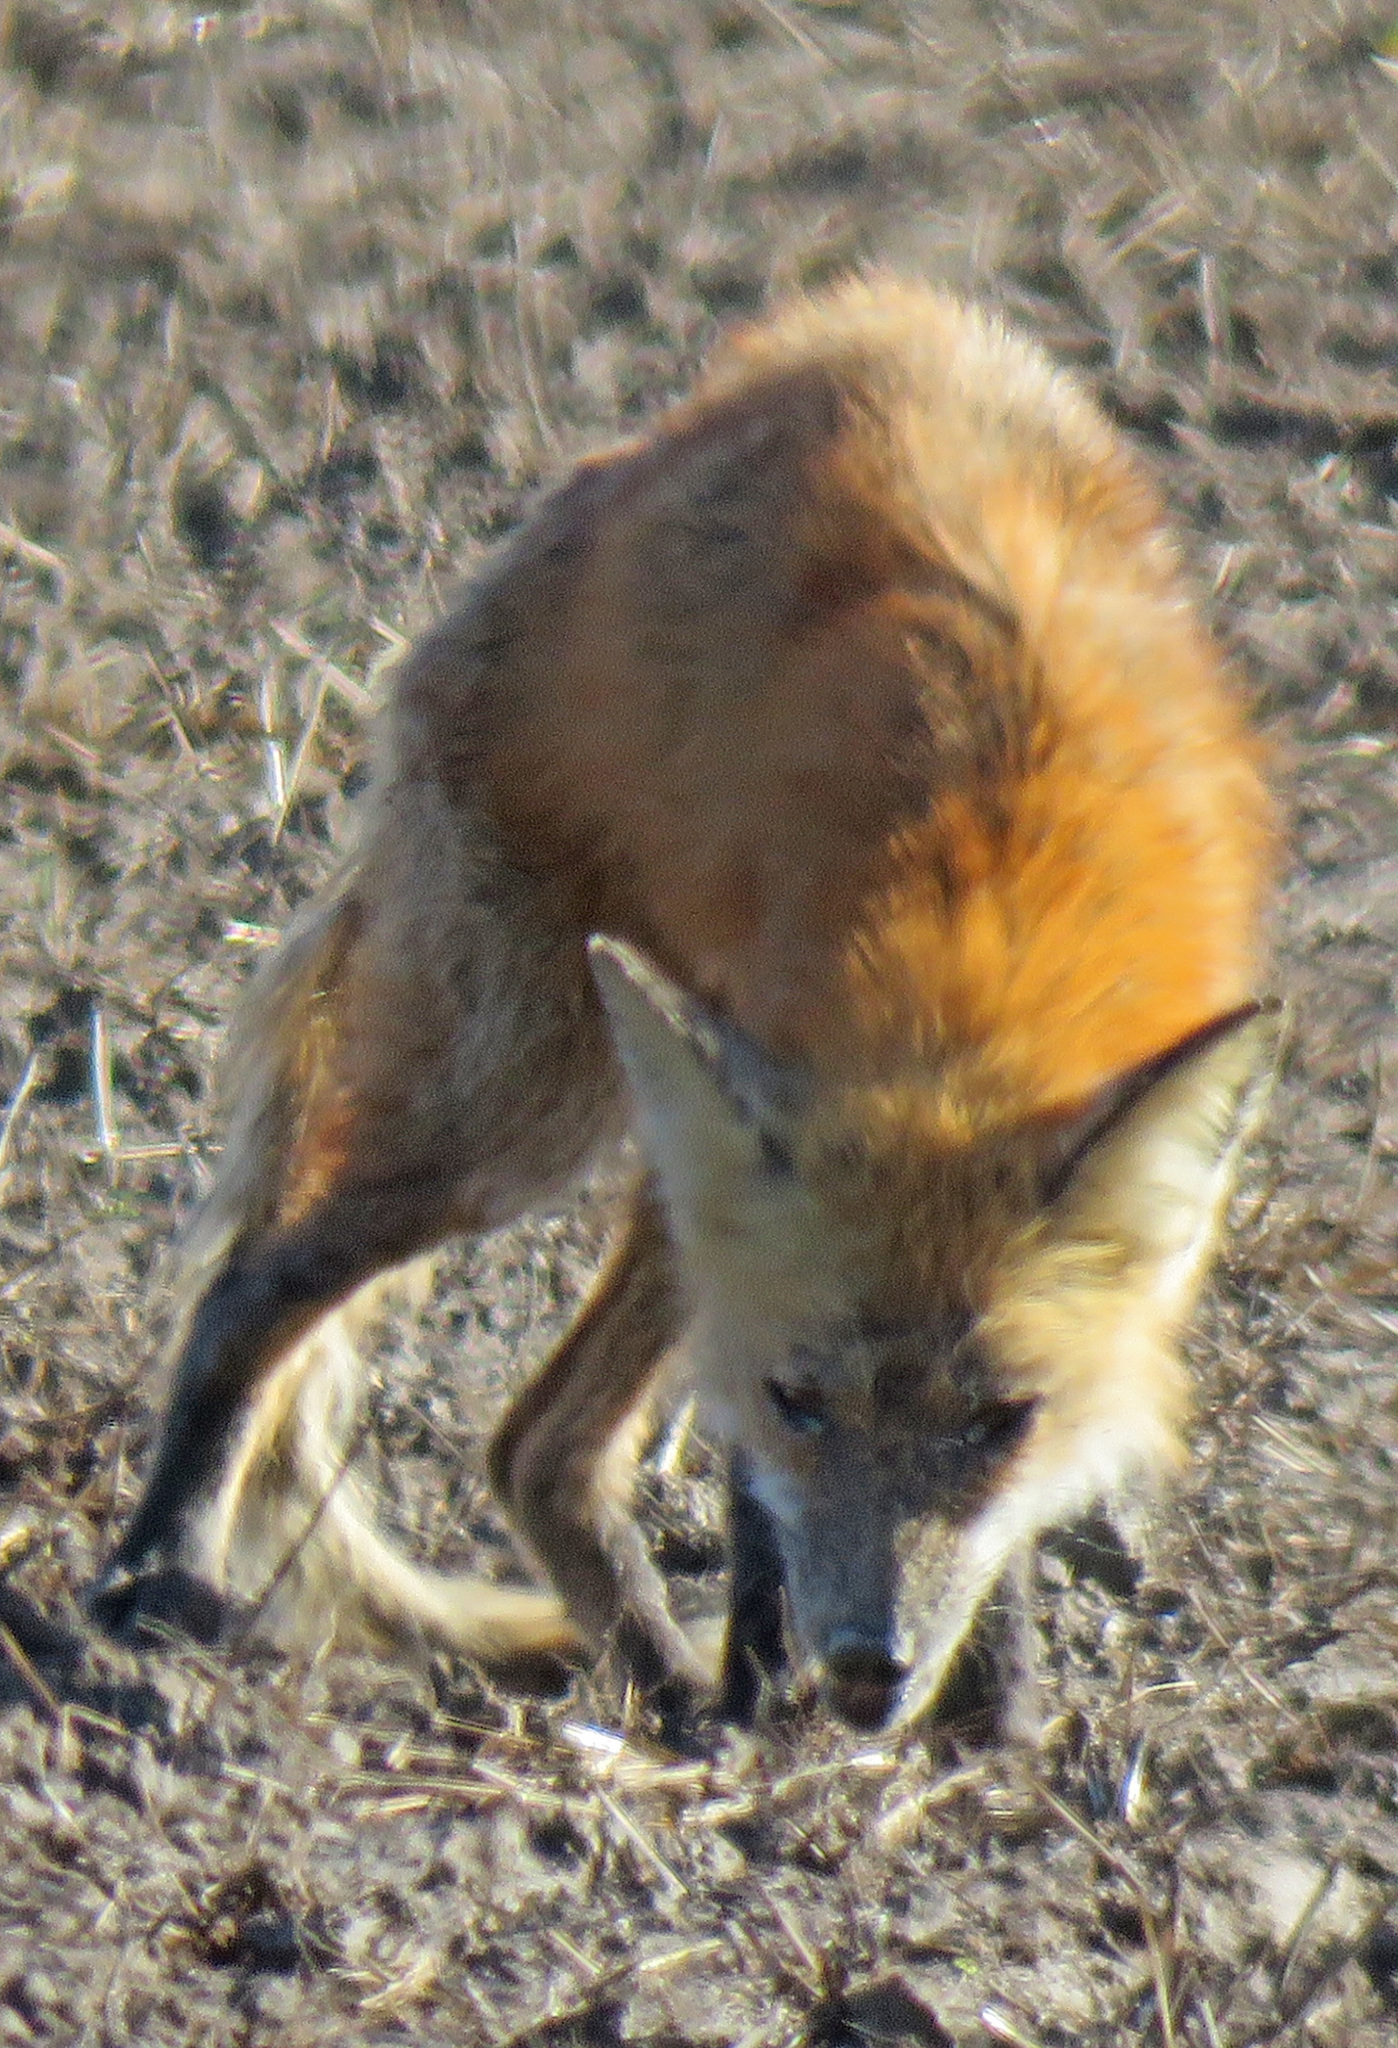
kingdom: Animalia
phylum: Chordata
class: Mammalia
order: Carnivora
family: Canidae
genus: Vulpes
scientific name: Vulpes vulpes
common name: Red fox
